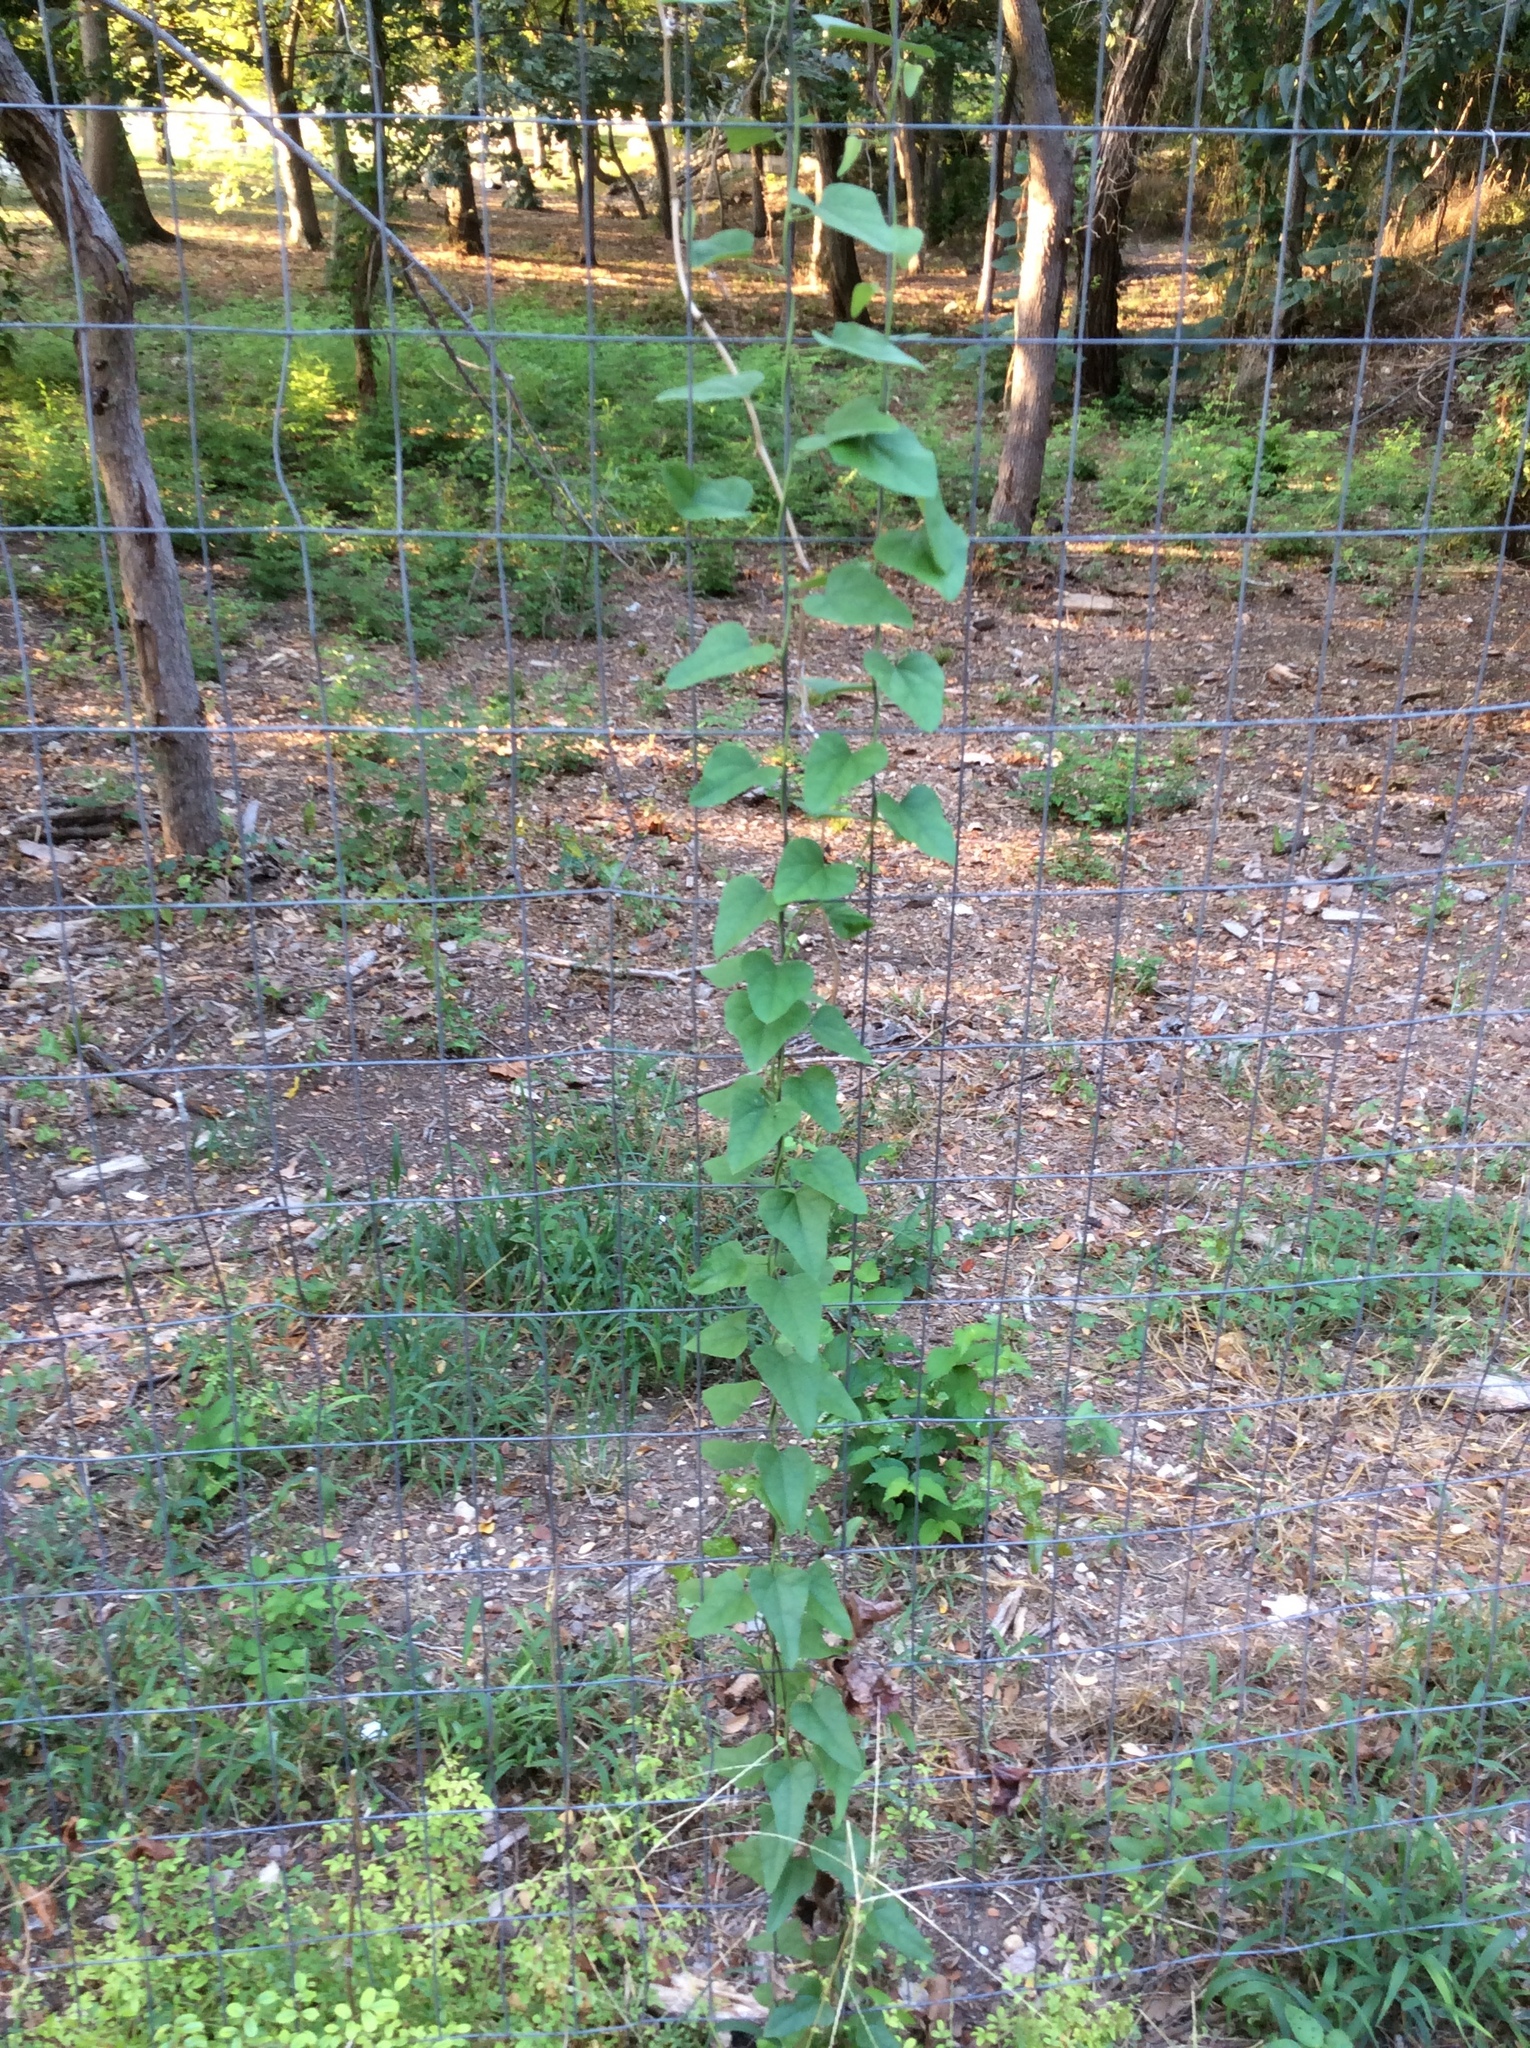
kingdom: Plantae
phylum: Tracheophyta
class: Magnoliopsida
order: Ranunculales
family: Menispermaceae
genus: Cocculus
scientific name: Cocculus carolinus
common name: Carolina moonseed
